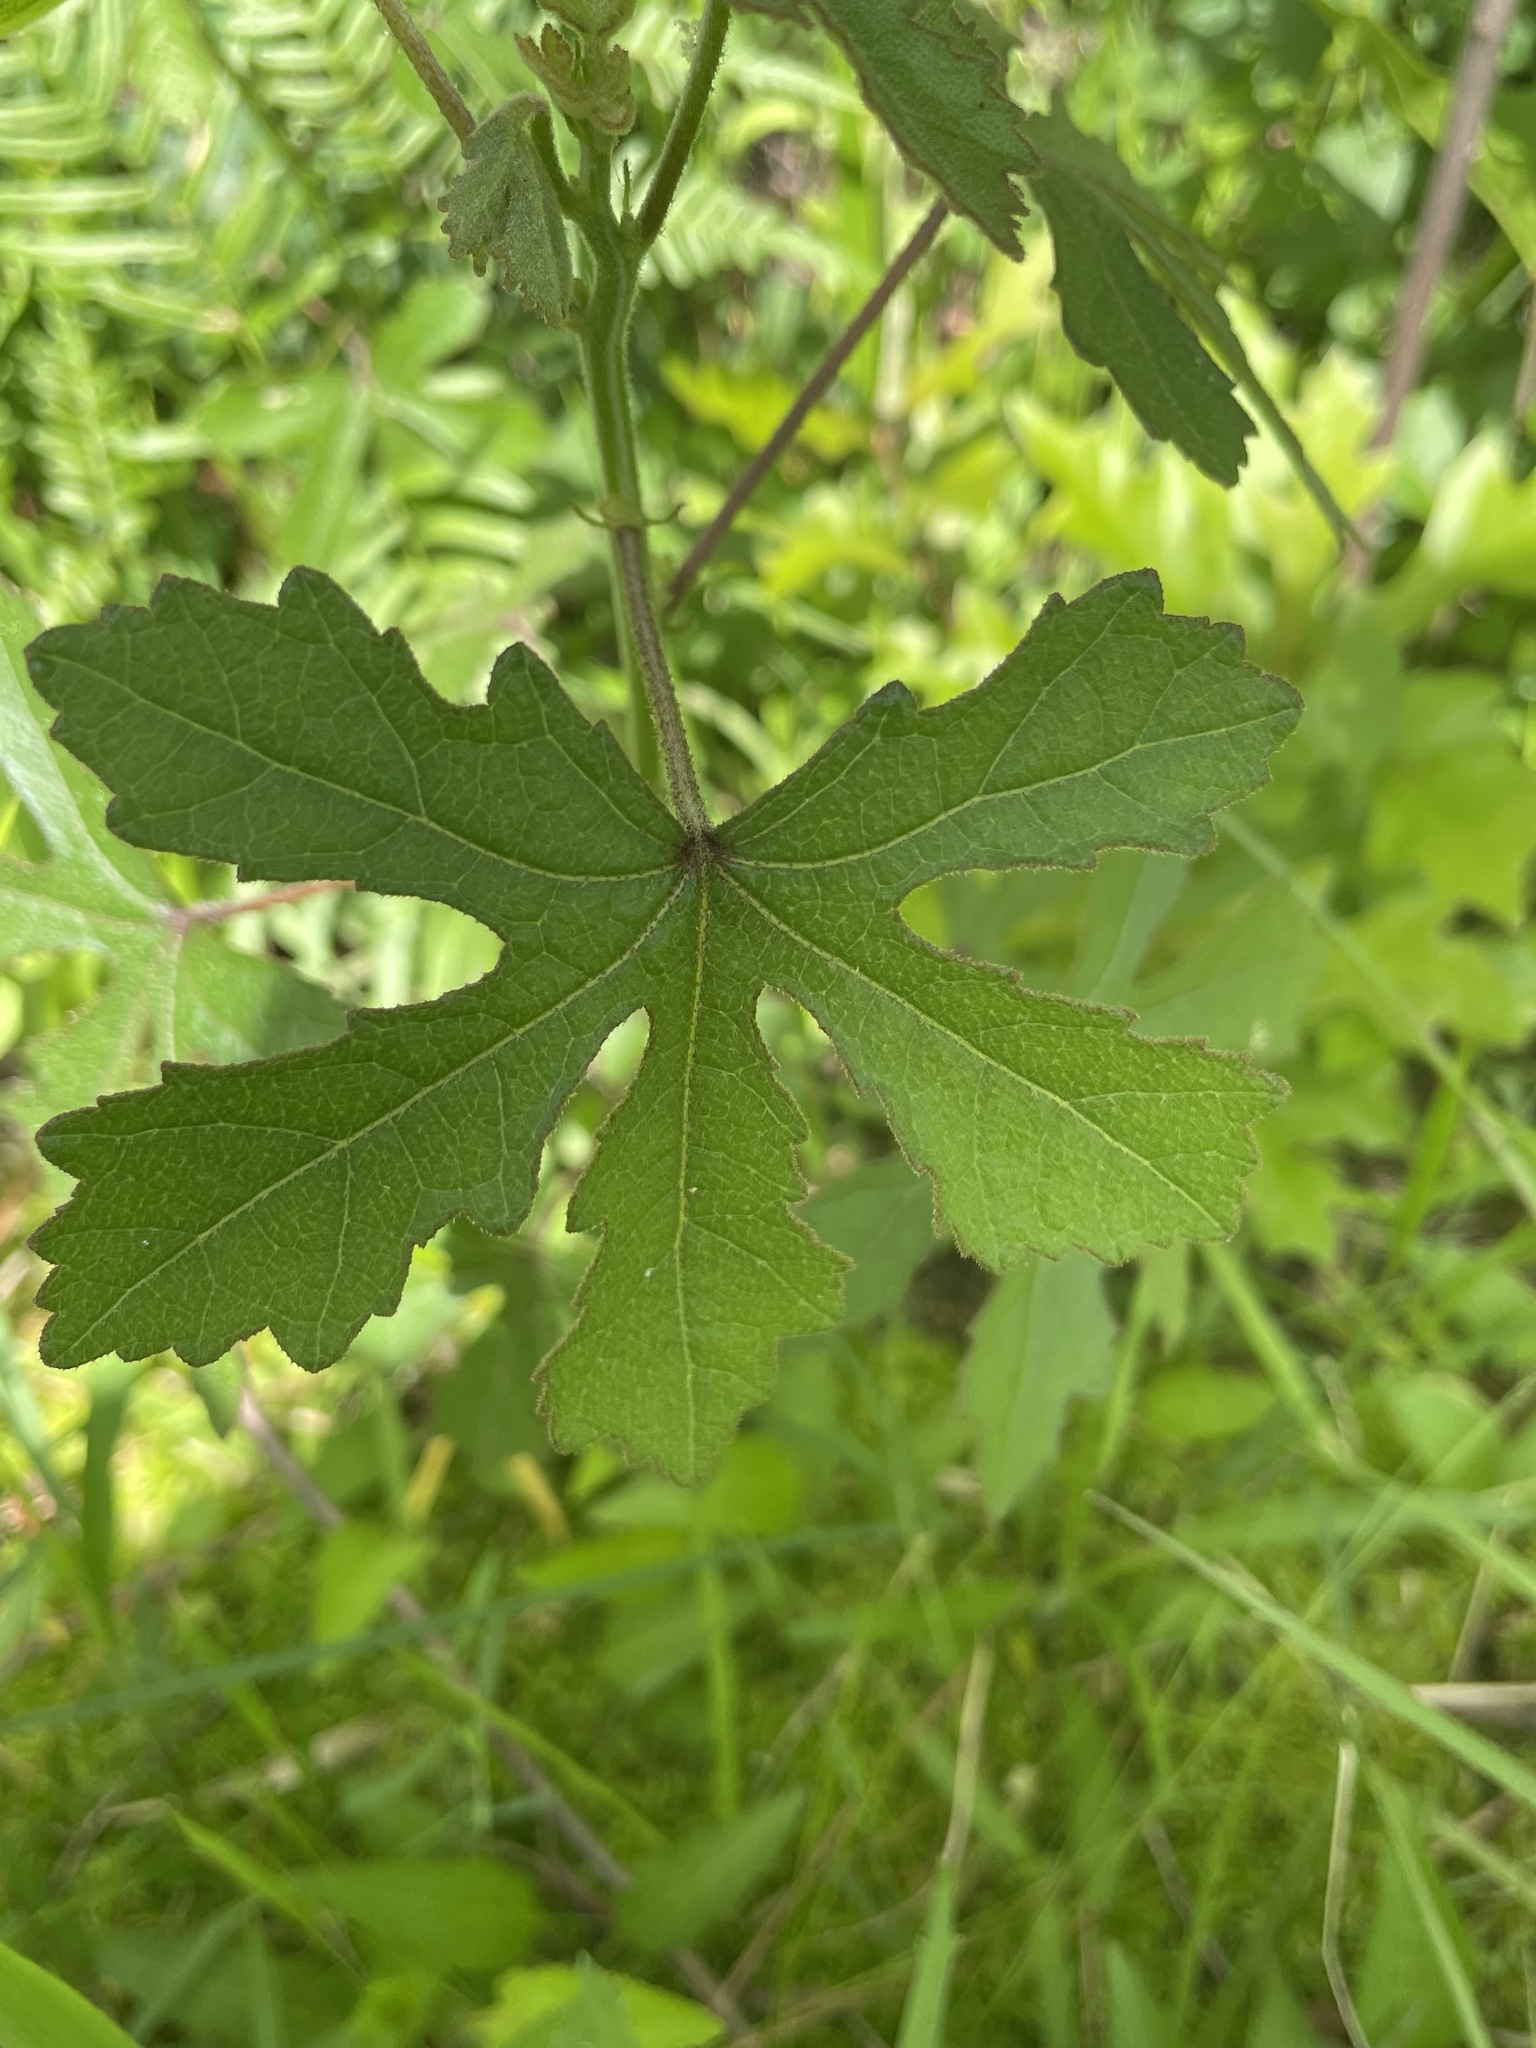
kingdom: Plantae
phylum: Tracheophyta
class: Magnoliopsida
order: Malvales
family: Malvaceae
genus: Hibiscus
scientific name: Hibiscus aculeatus
